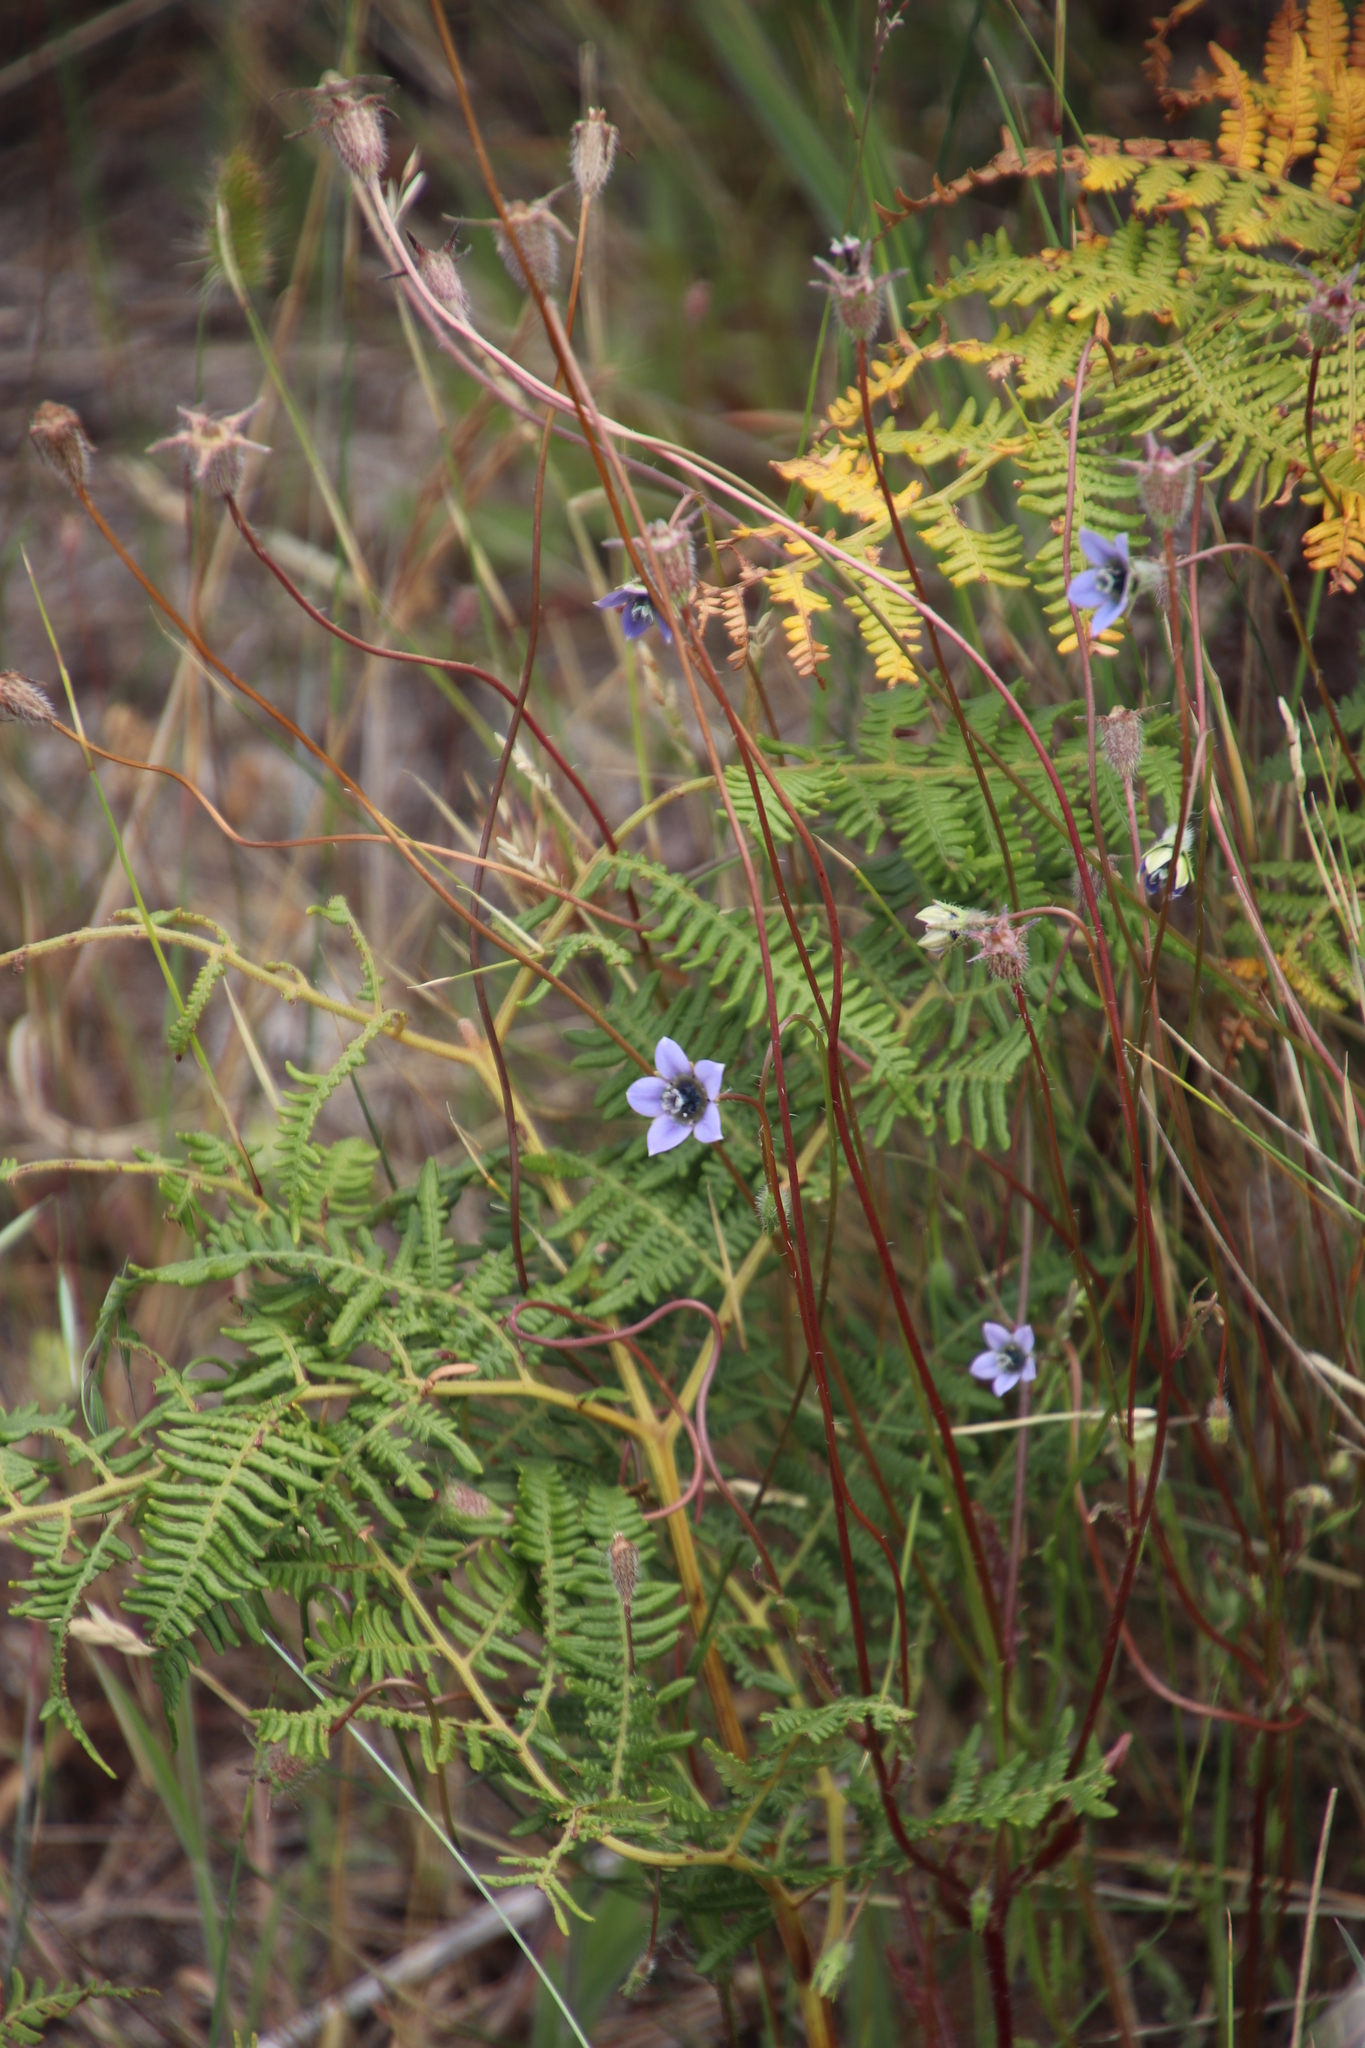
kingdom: Plantae
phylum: Tracheophyta
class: Magnoliopsida
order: Asterales
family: Campanulaceae
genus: Wahlenbergia
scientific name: Wahlenbergia capensis
